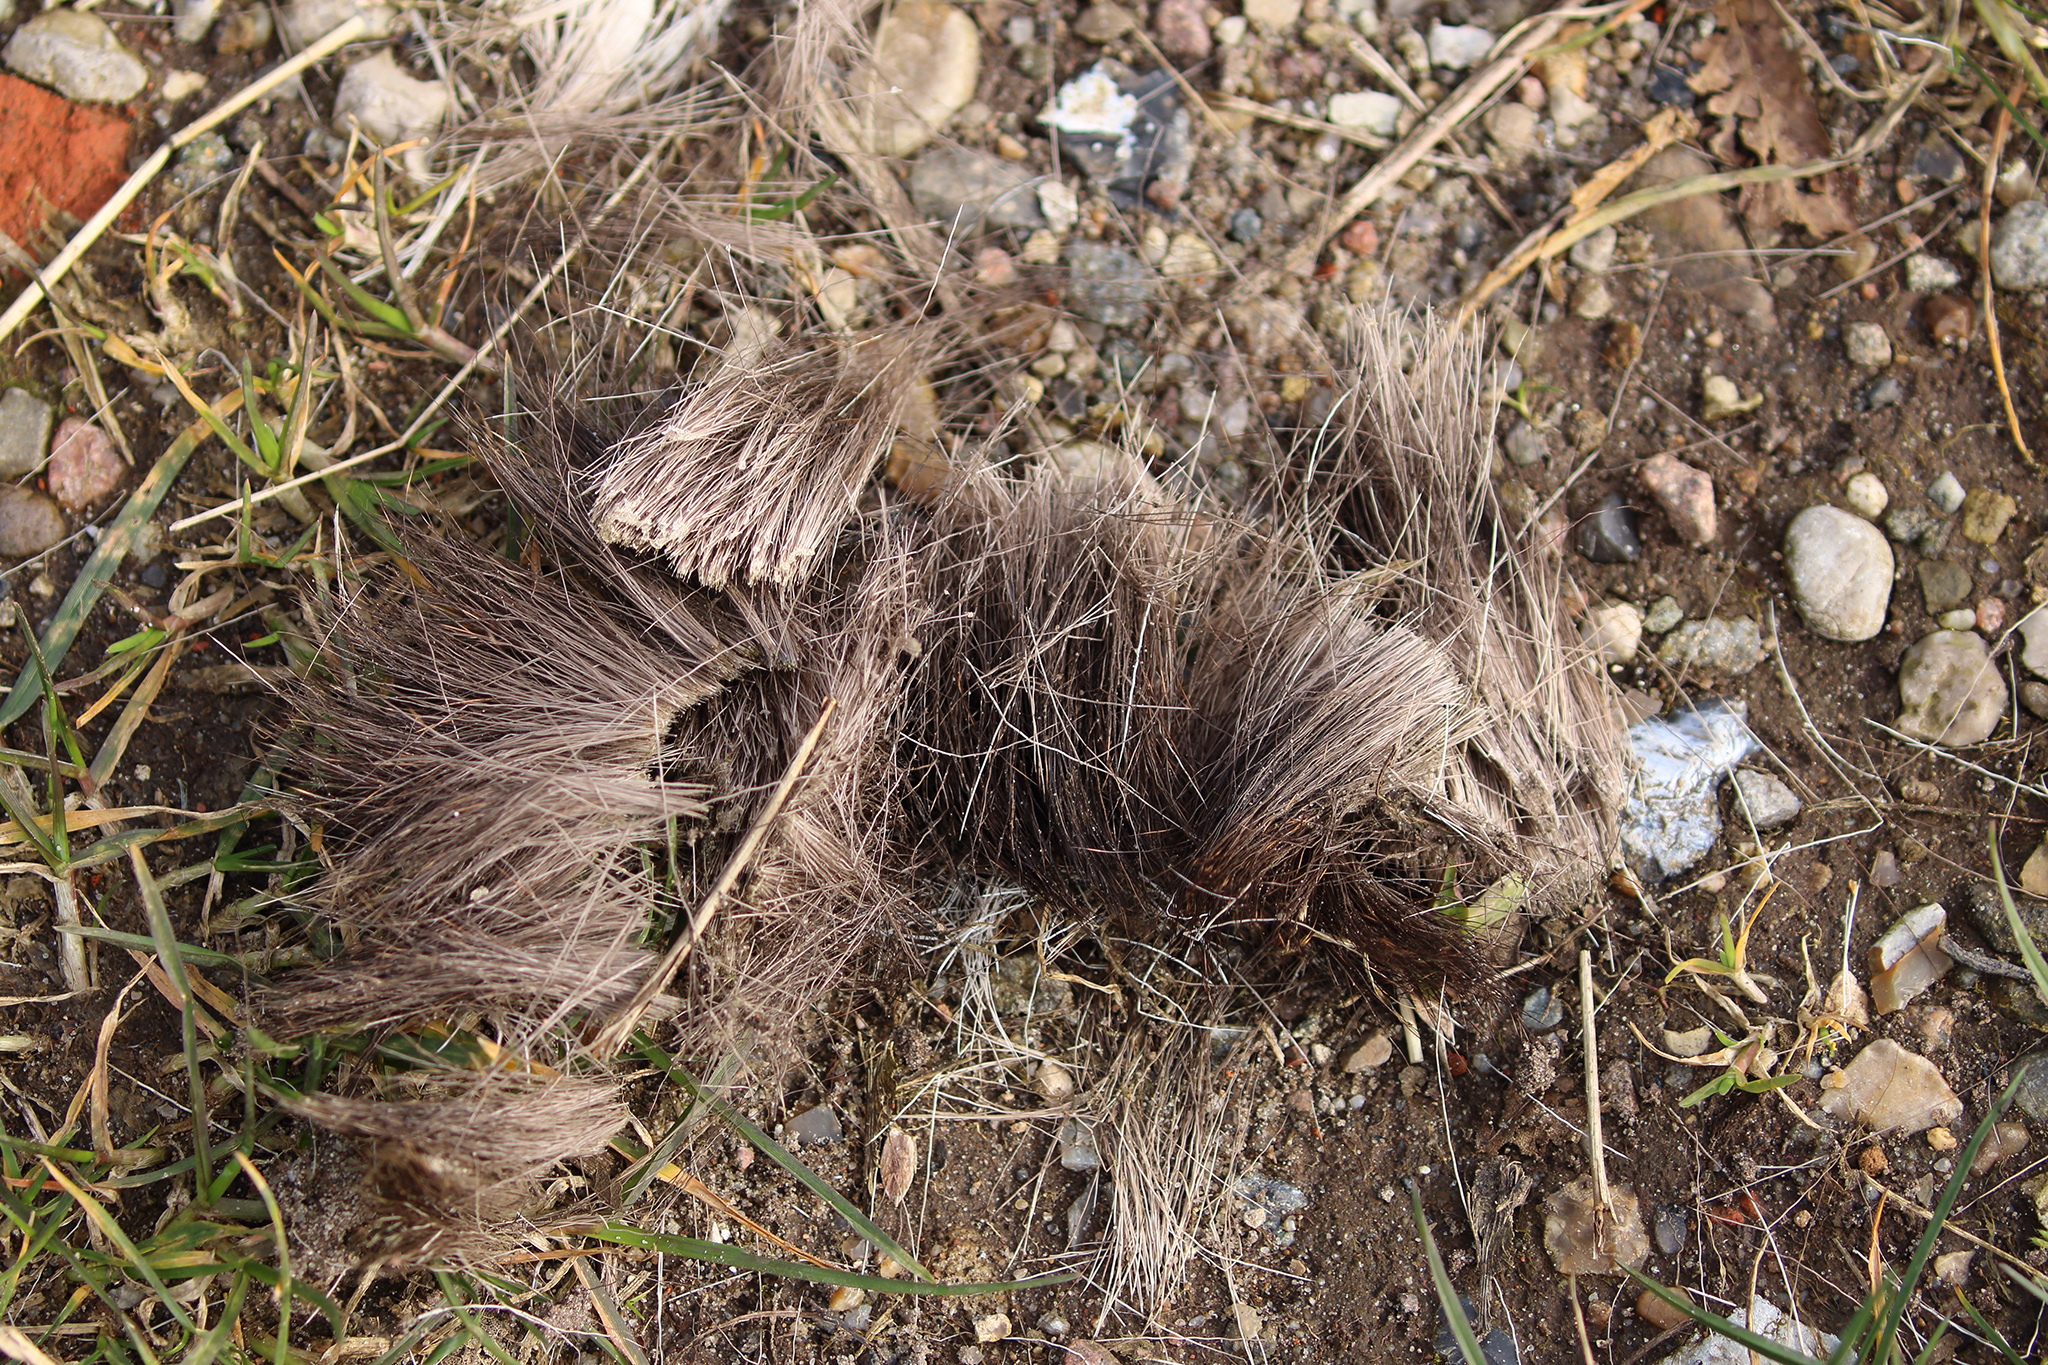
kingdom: Animalia
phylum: Chordata
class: Mammalia
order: Artiodactyla
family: Cervidae
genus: Capreolus
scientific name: Capreolus capreolus
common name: Western roe deer
